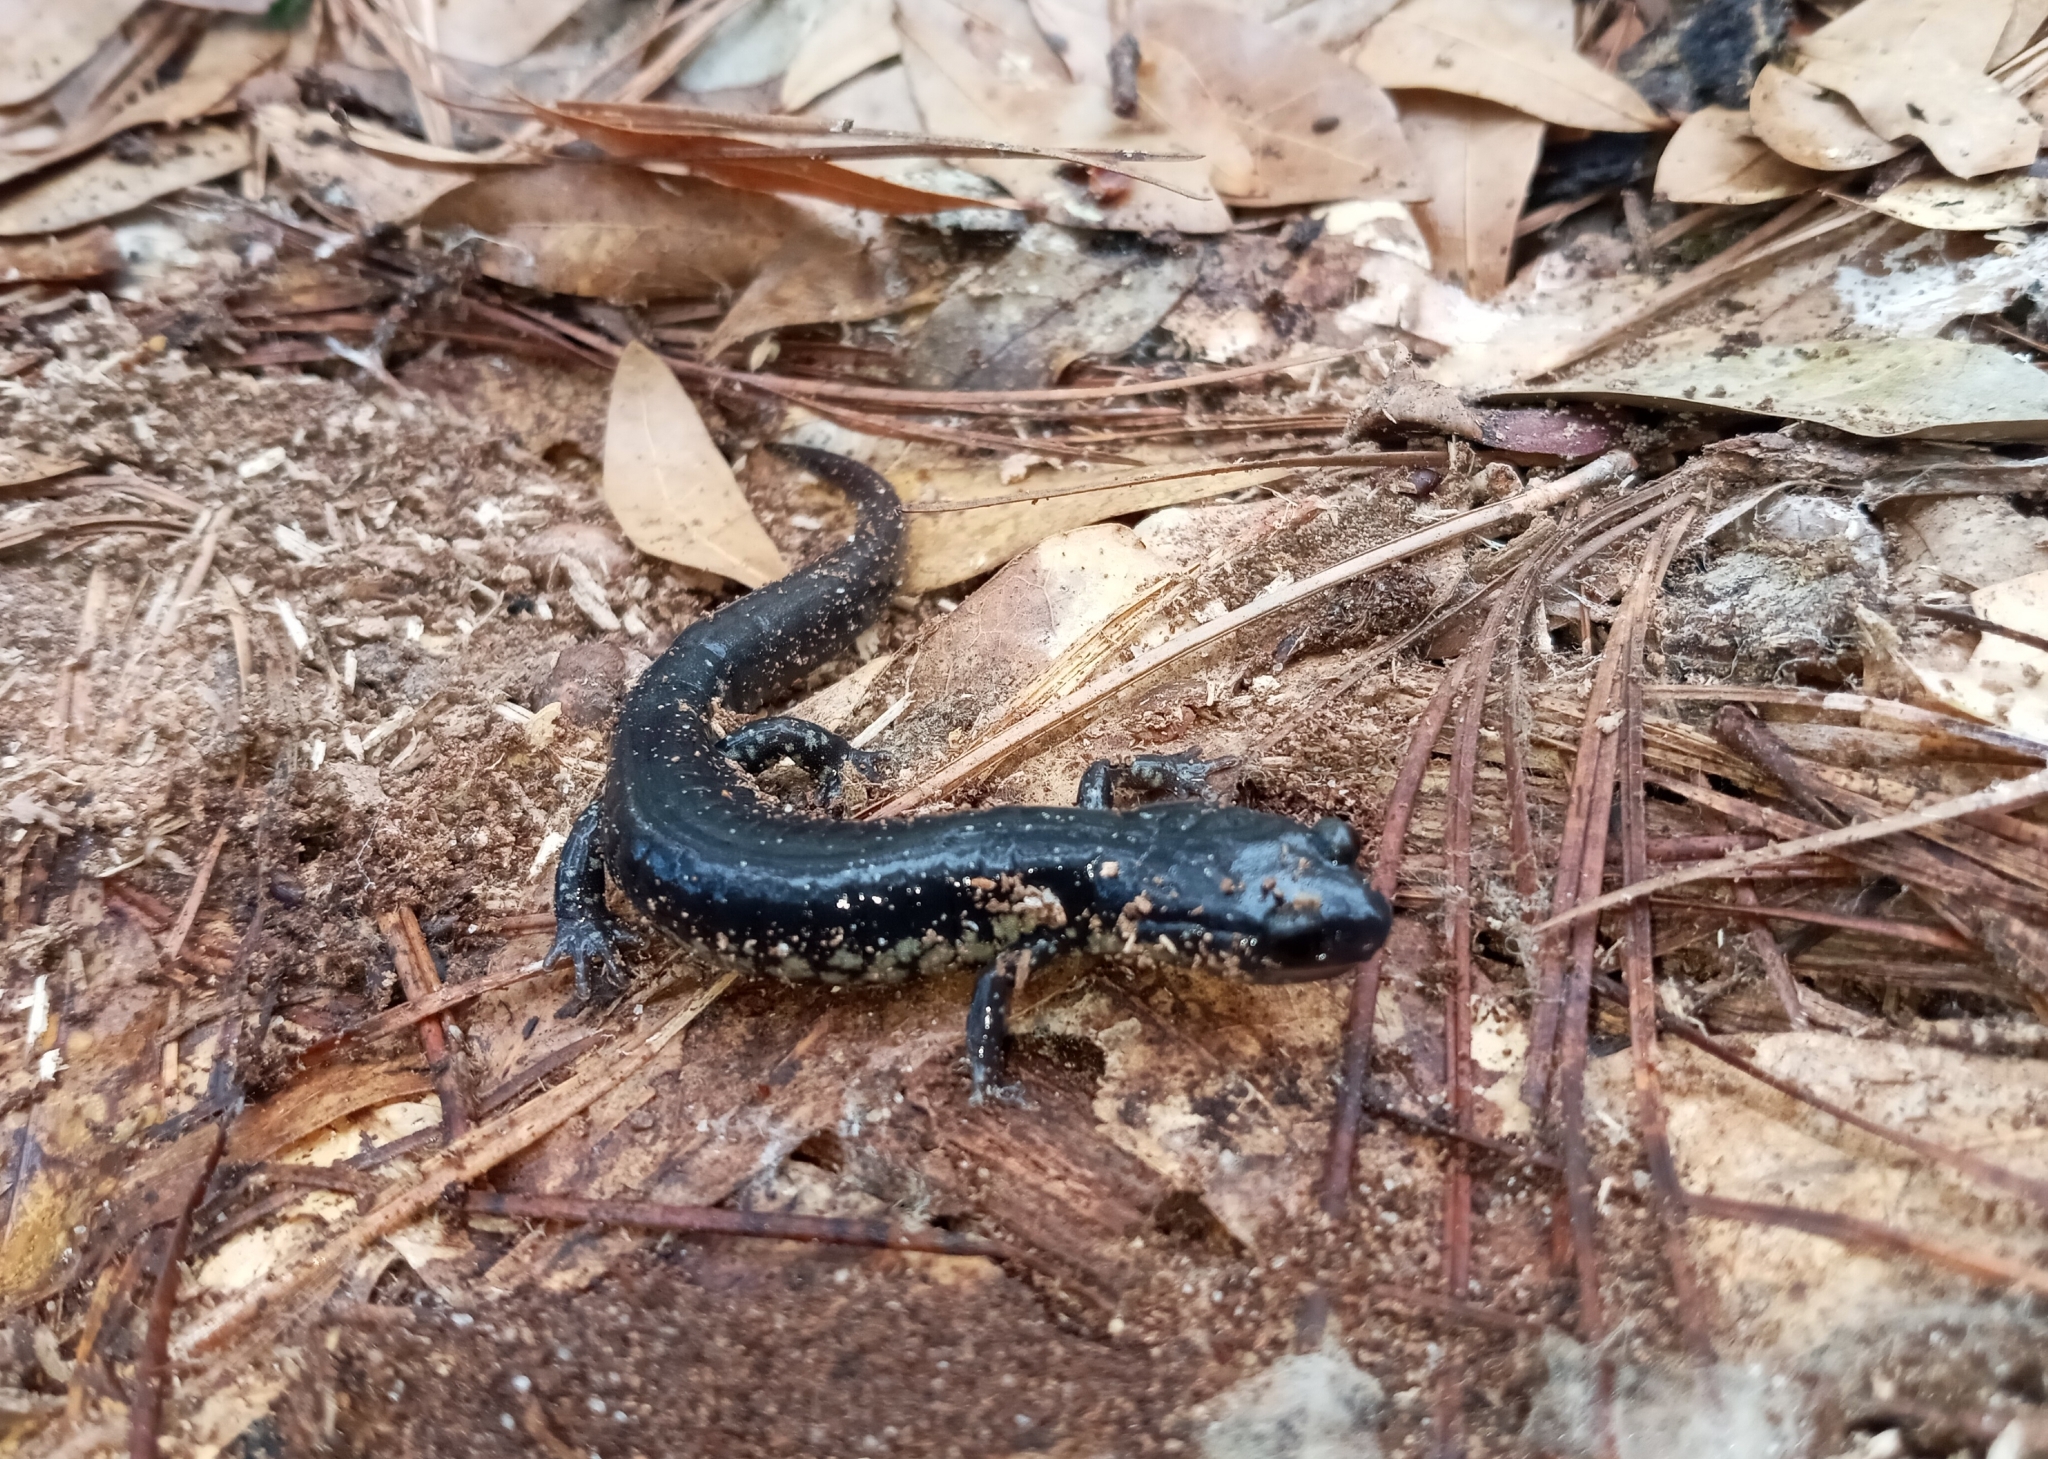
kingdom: Animalia
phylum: Chordata
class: Amphibia
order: Caudata
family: Plethodontidae
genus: Plethodon
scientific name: Plethodon chlorobryonis
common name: Atlantic coast slimy salamander
